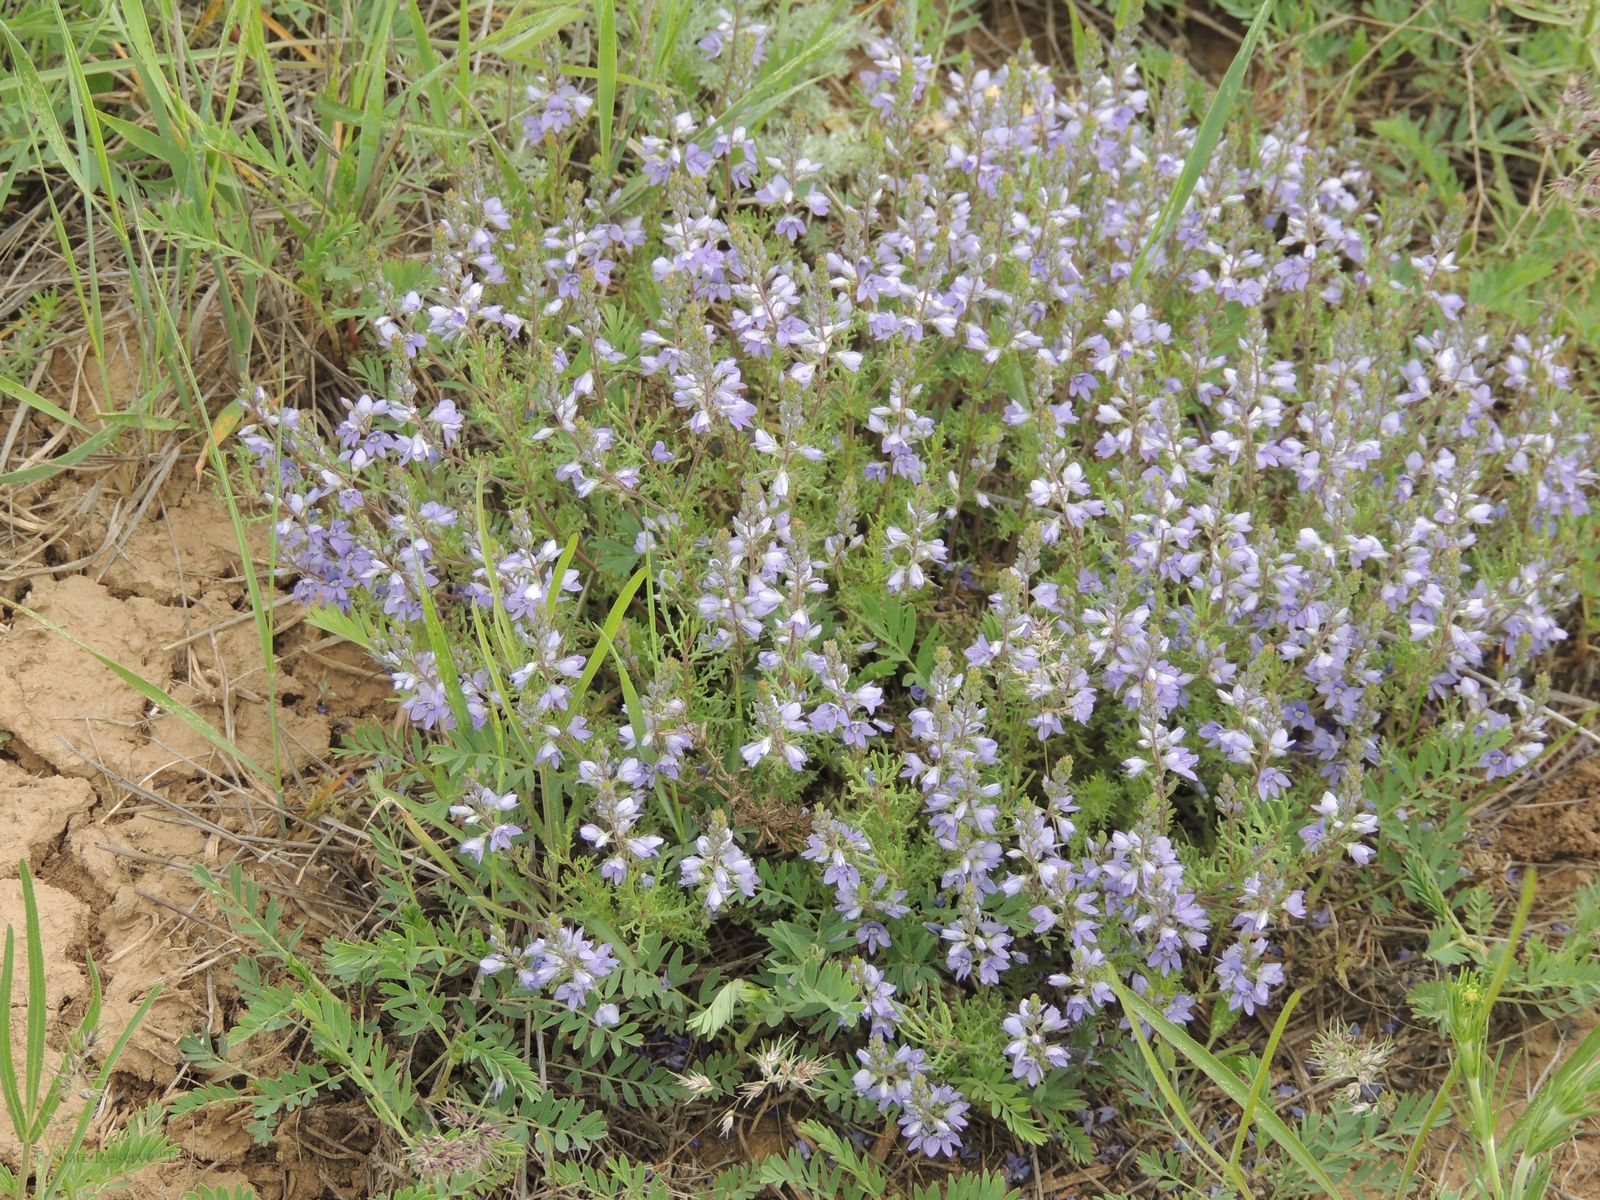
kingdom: Plantae
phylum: Tracheophyta
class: Magnoliopsida
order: Lamiales
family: Plantaginaceae
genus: Veronica
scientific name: Veronica multifida
